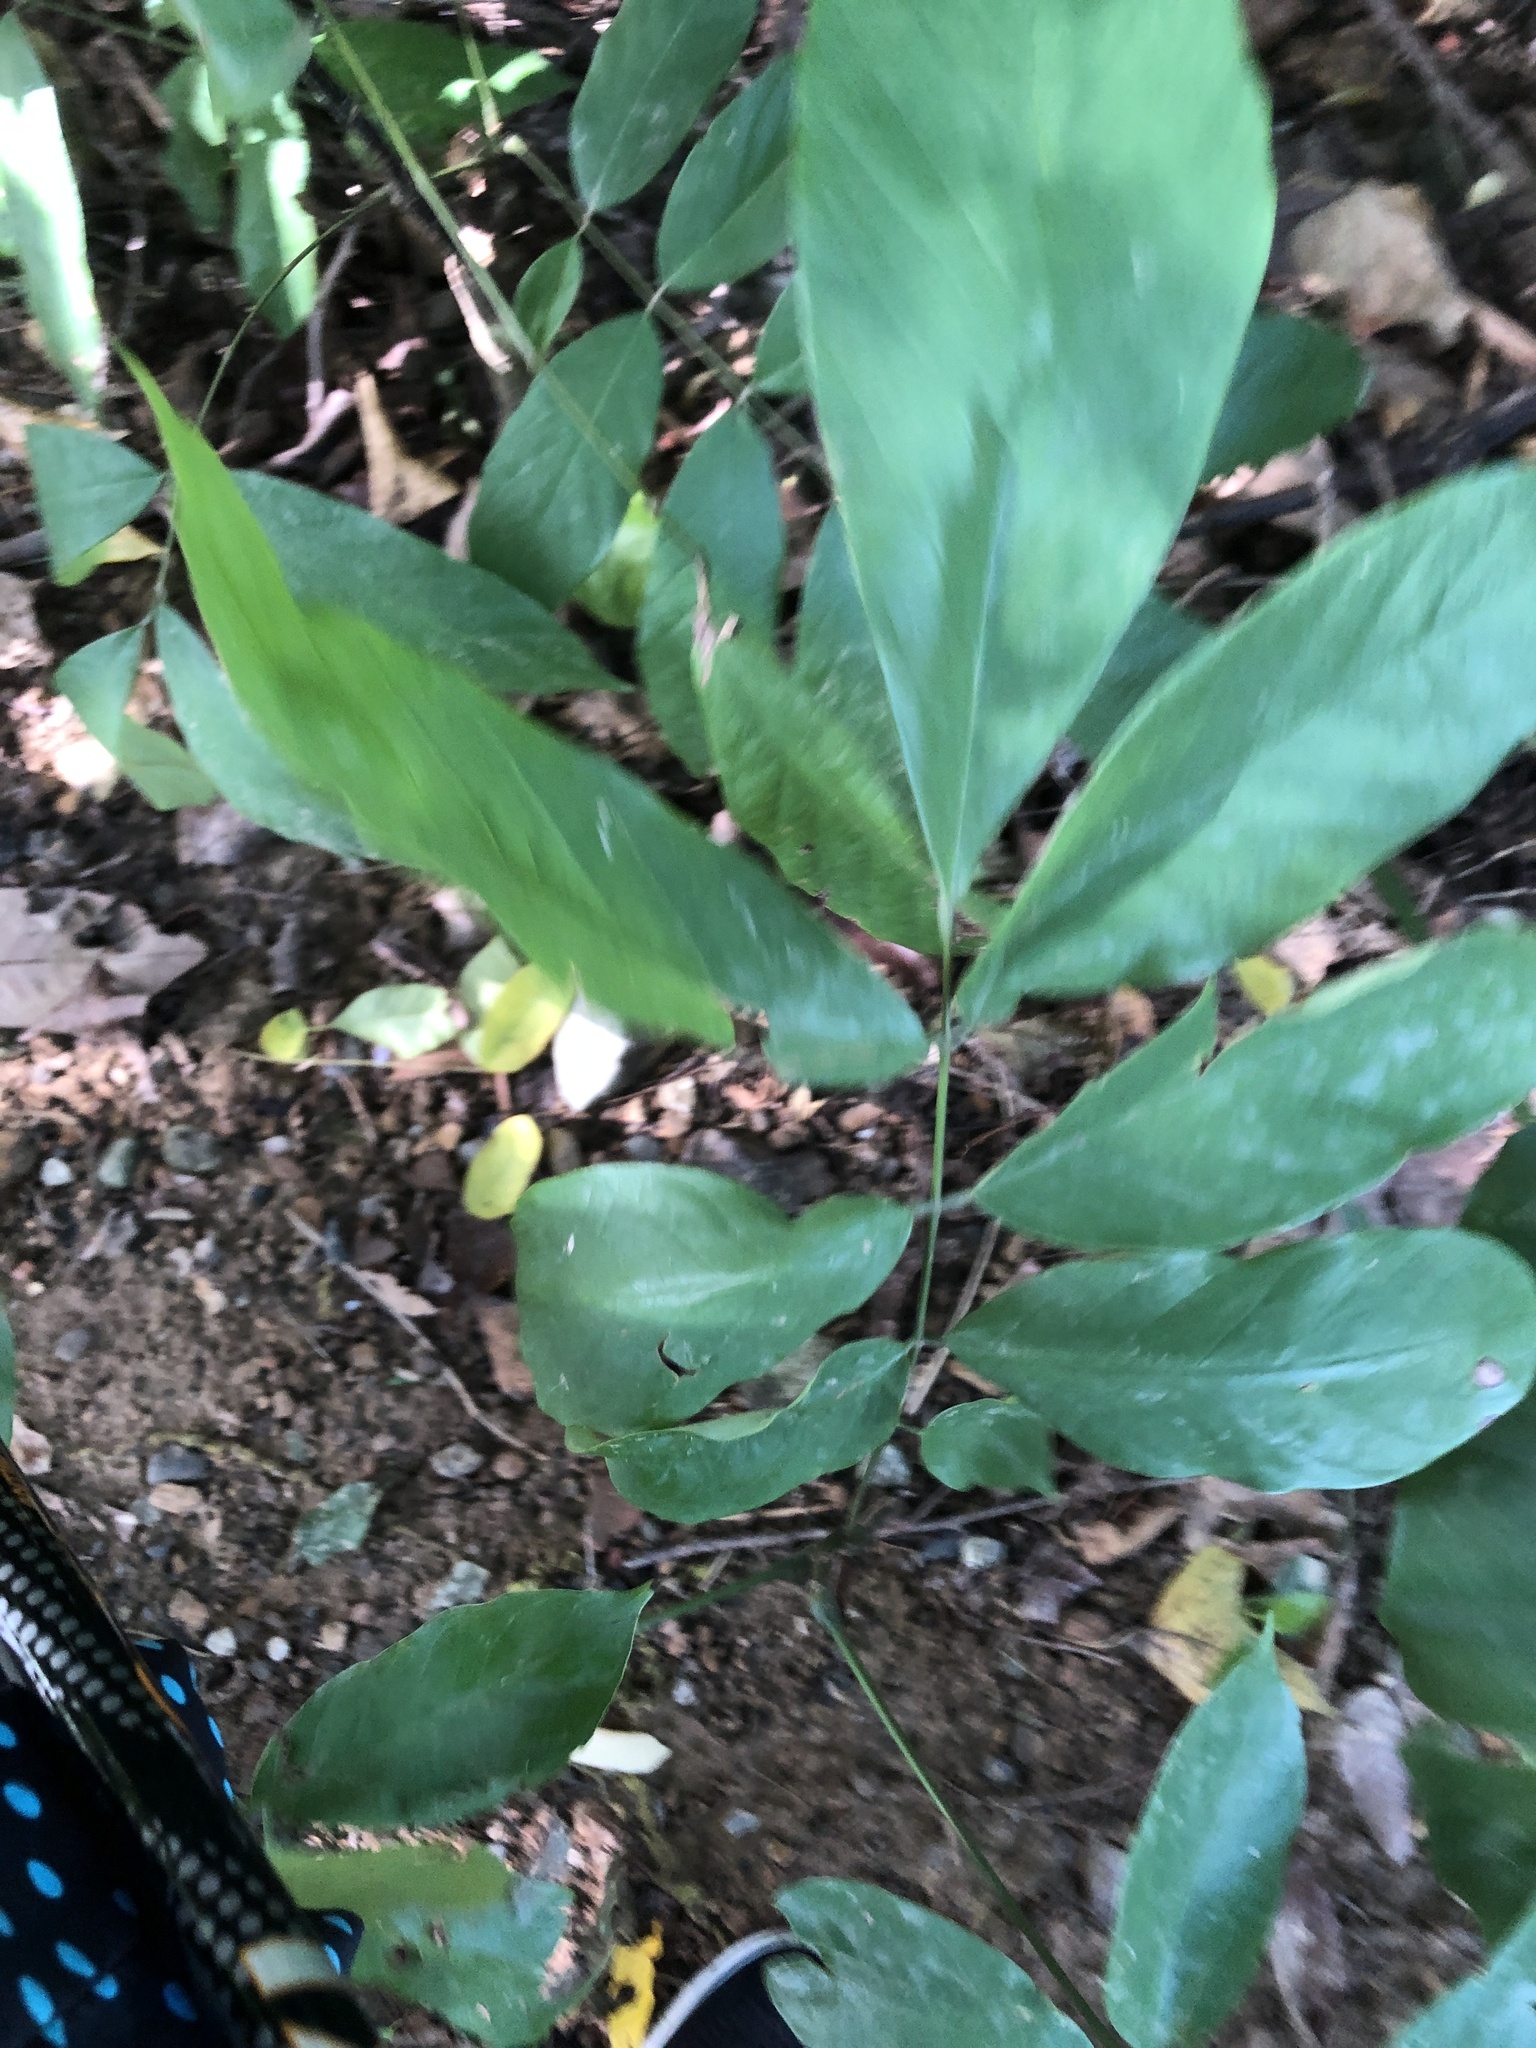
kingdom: Plantae
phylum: Tracheophyta
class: Magnoliopsida
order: Fabales
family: Fabaceae
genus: Millettia
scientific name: Millettia pachycarpa
